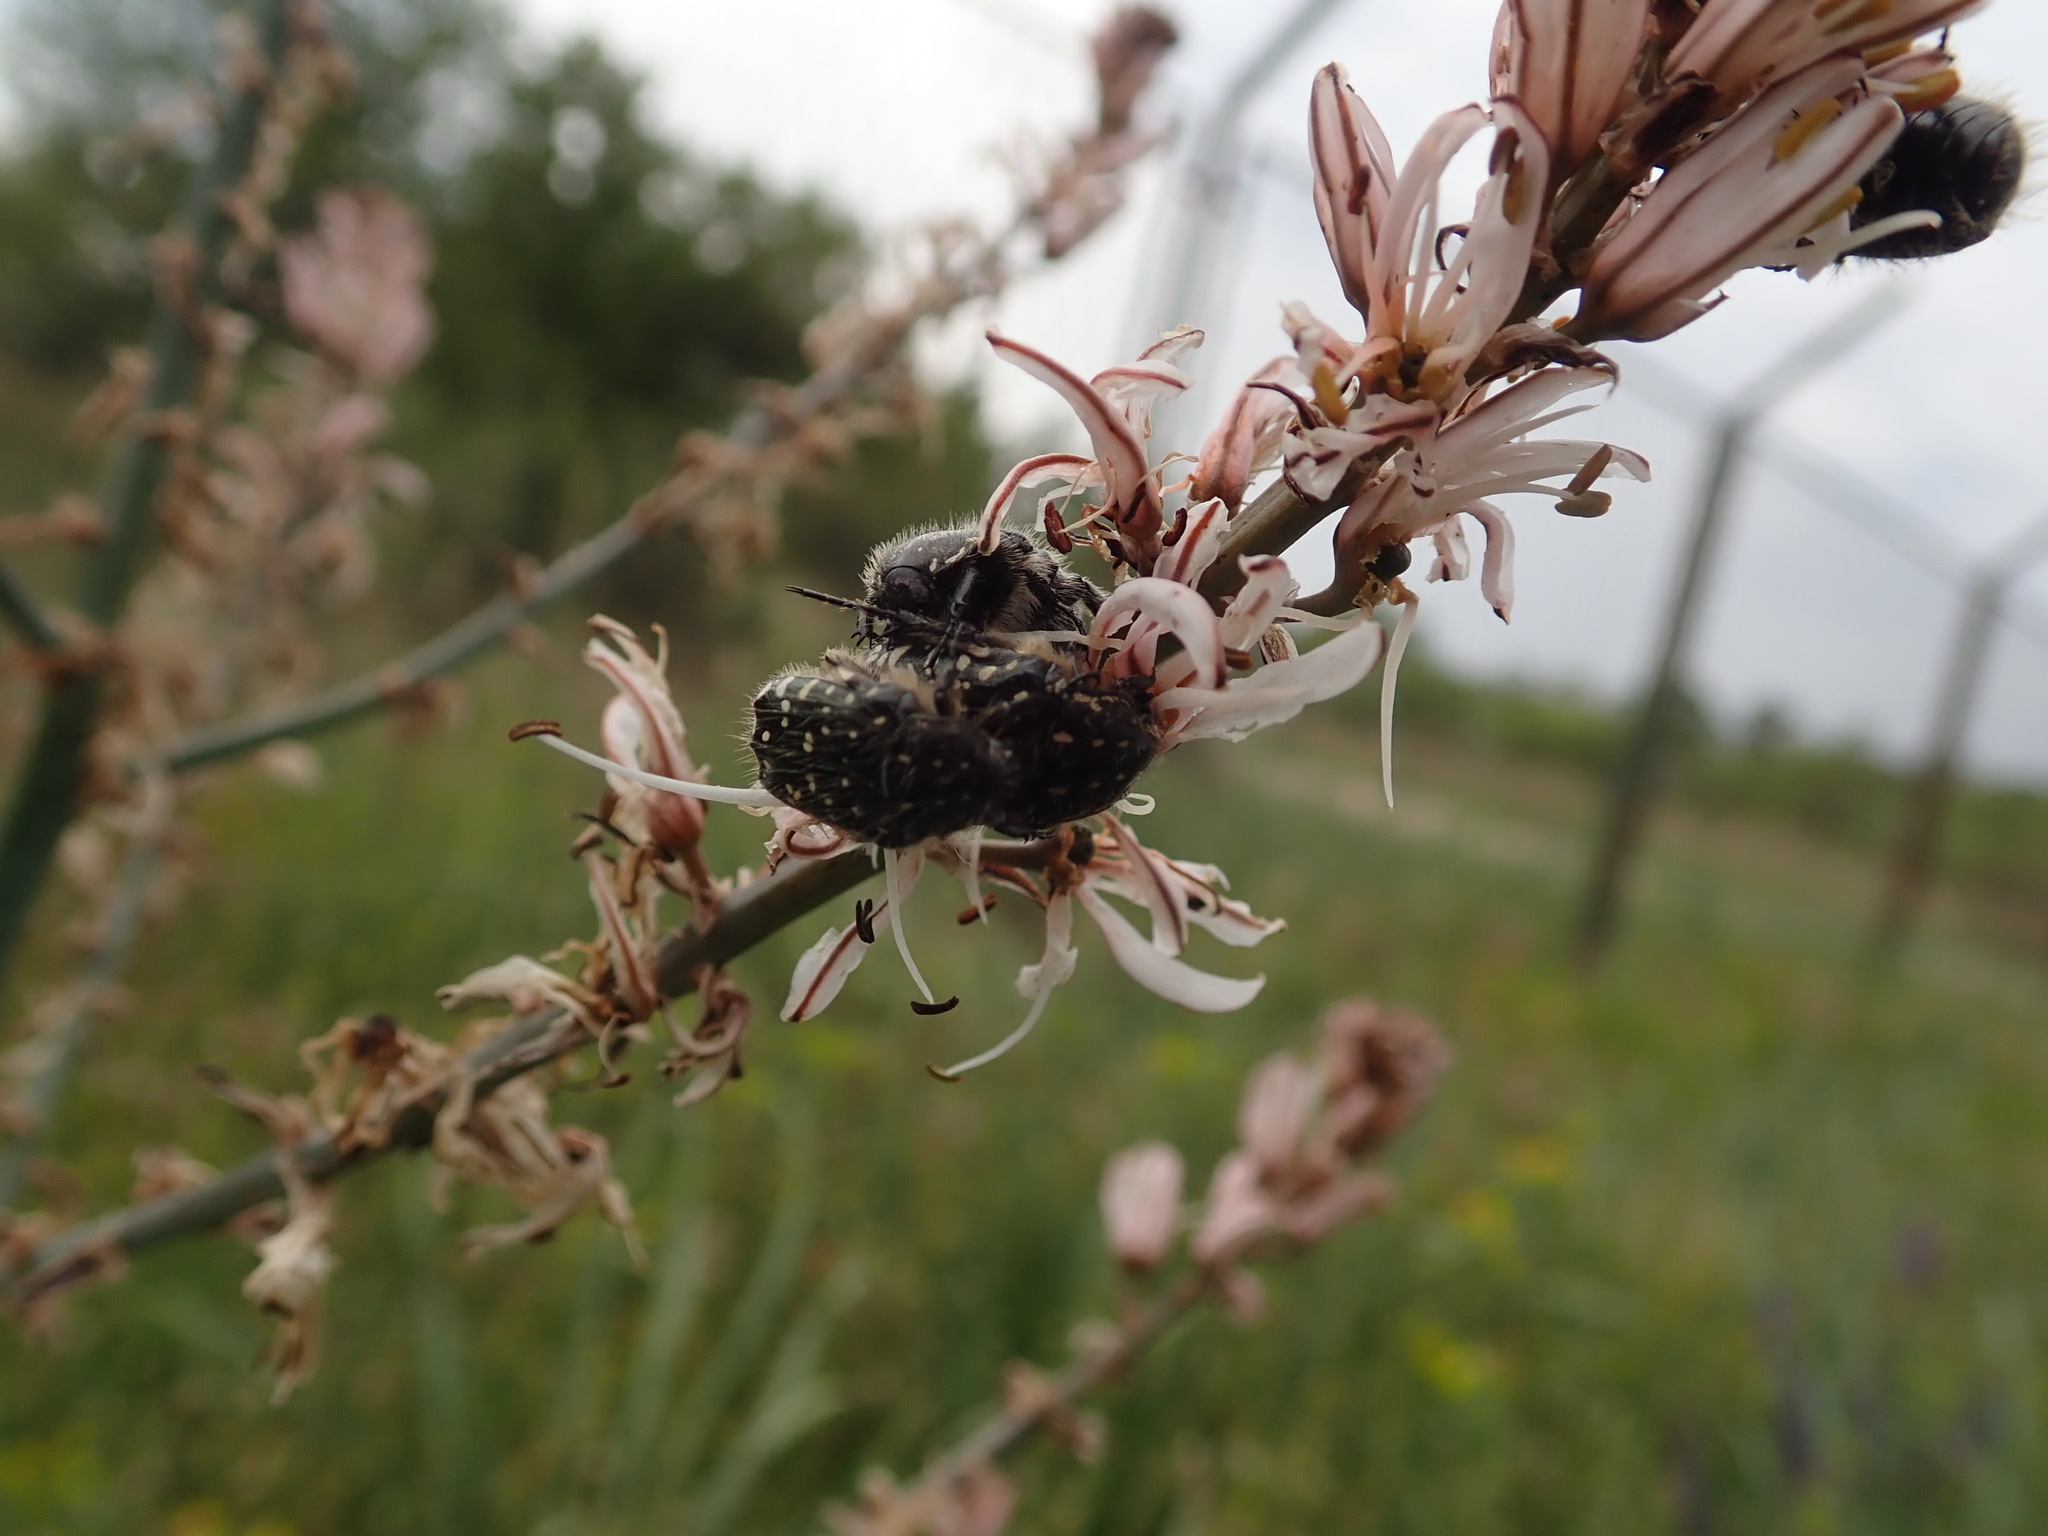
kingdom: Animalia
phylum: Arthropoda
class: Insecta
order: Coleoptera
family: Scarabaeidae
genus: Oxythyrea
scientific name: Oxythyrea funesta
